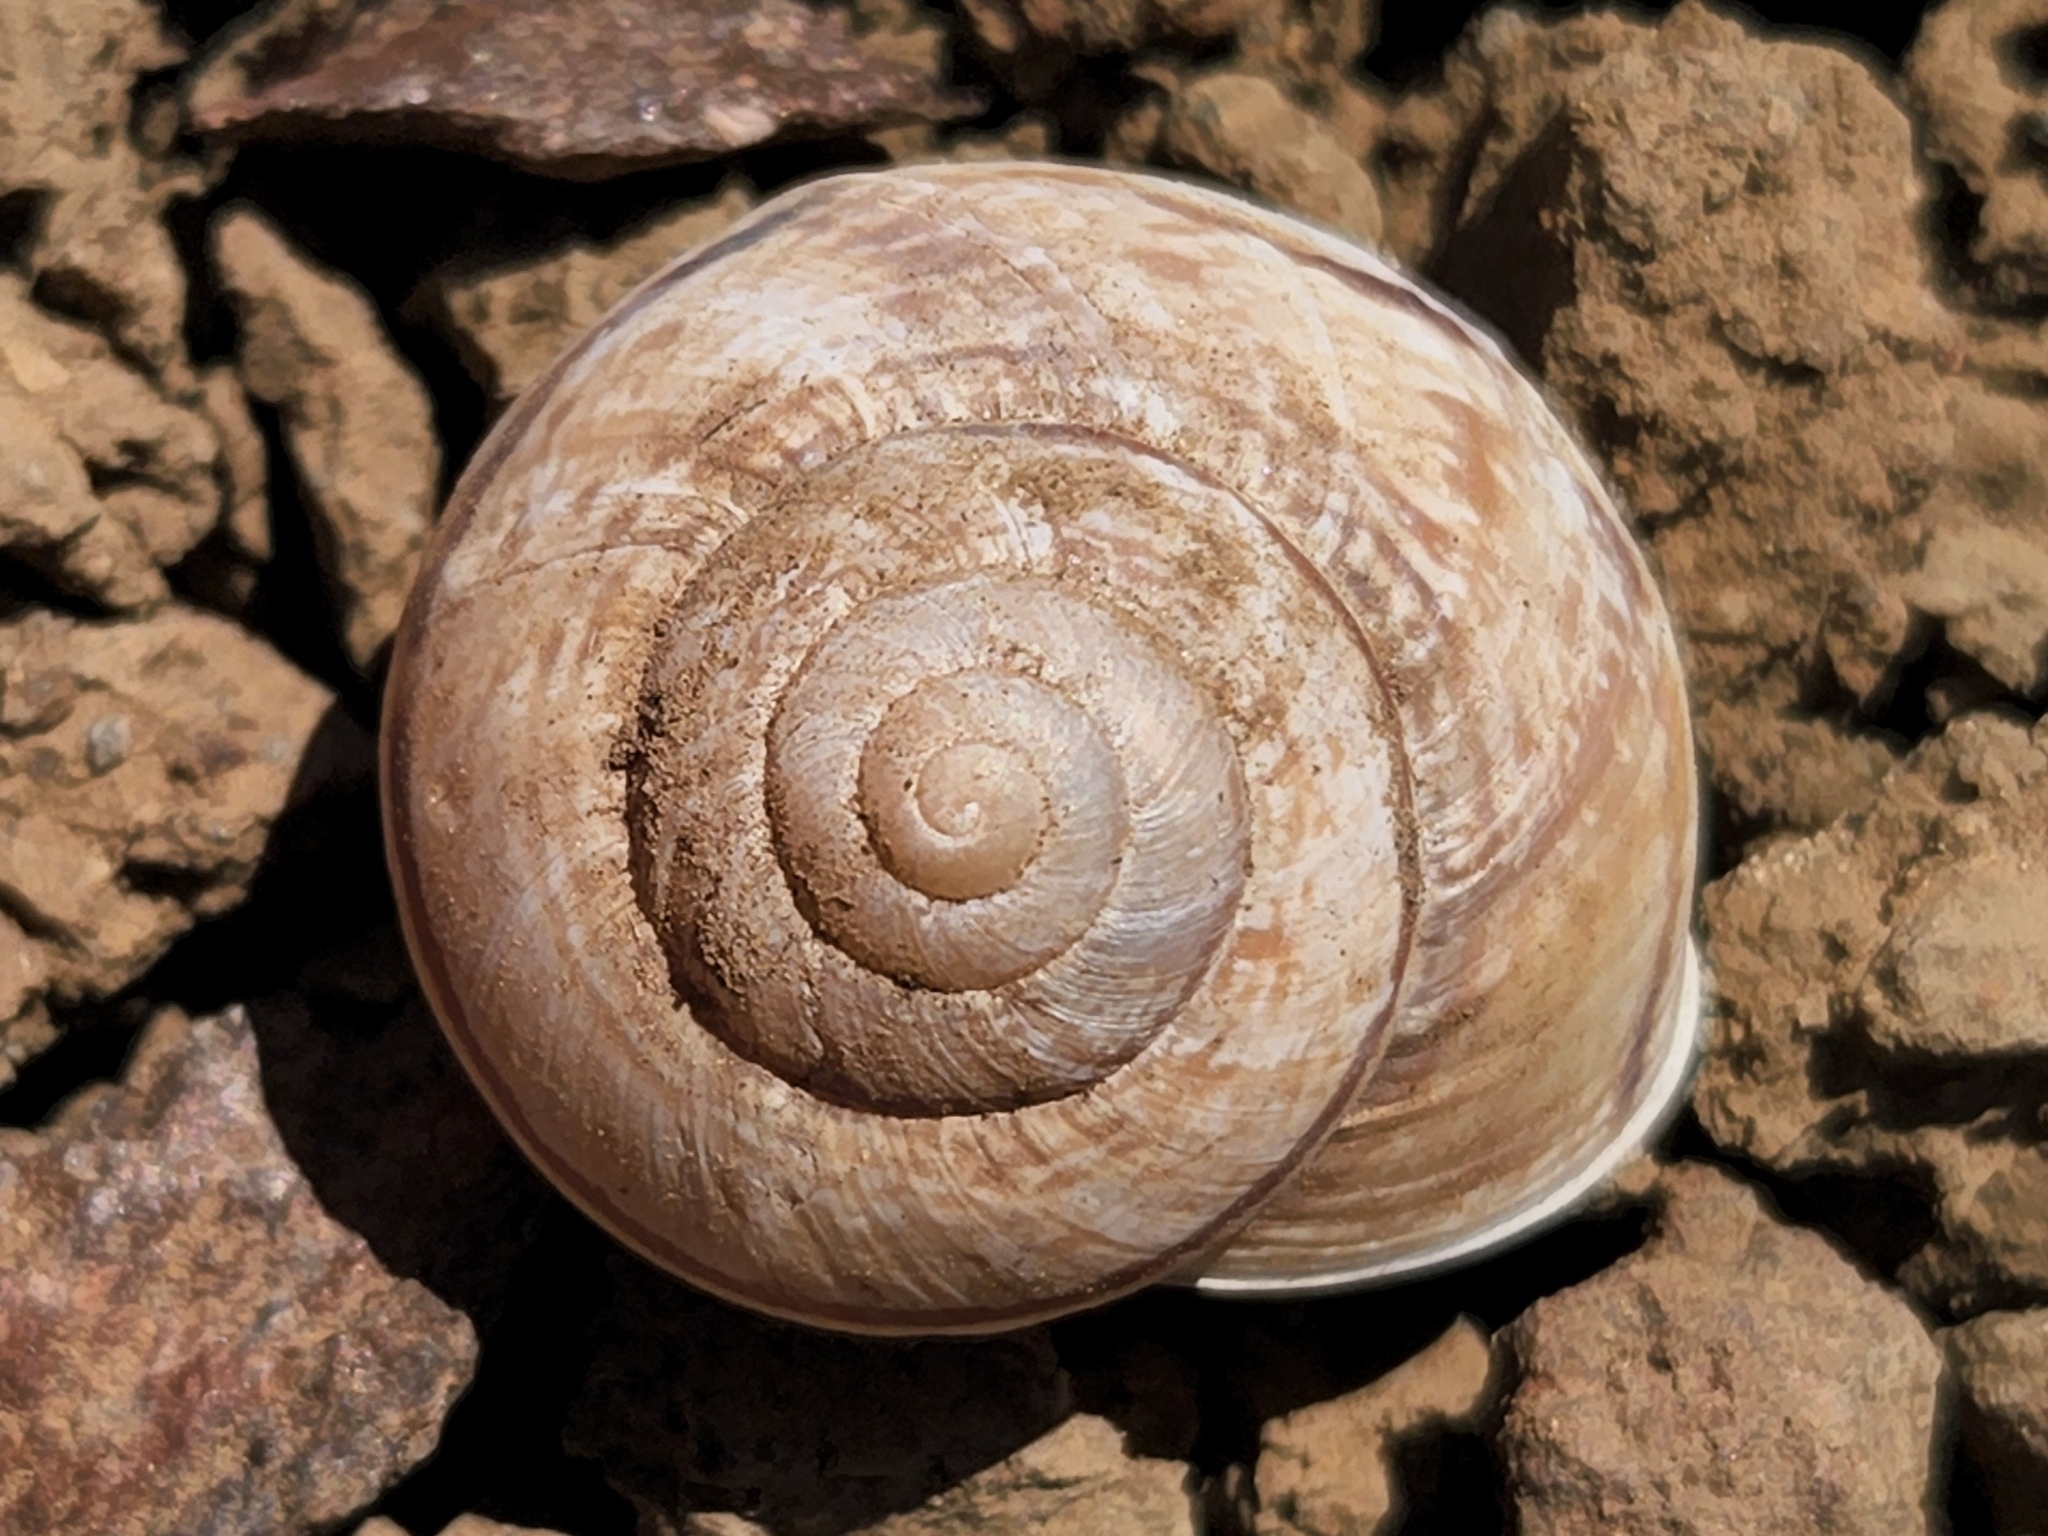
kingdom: Animalia
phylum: Mollusca
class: Gastropoda
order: Stylommatophora
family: Xanthonychidae
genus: Xerarionta
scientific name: Xerarionta kellettii
